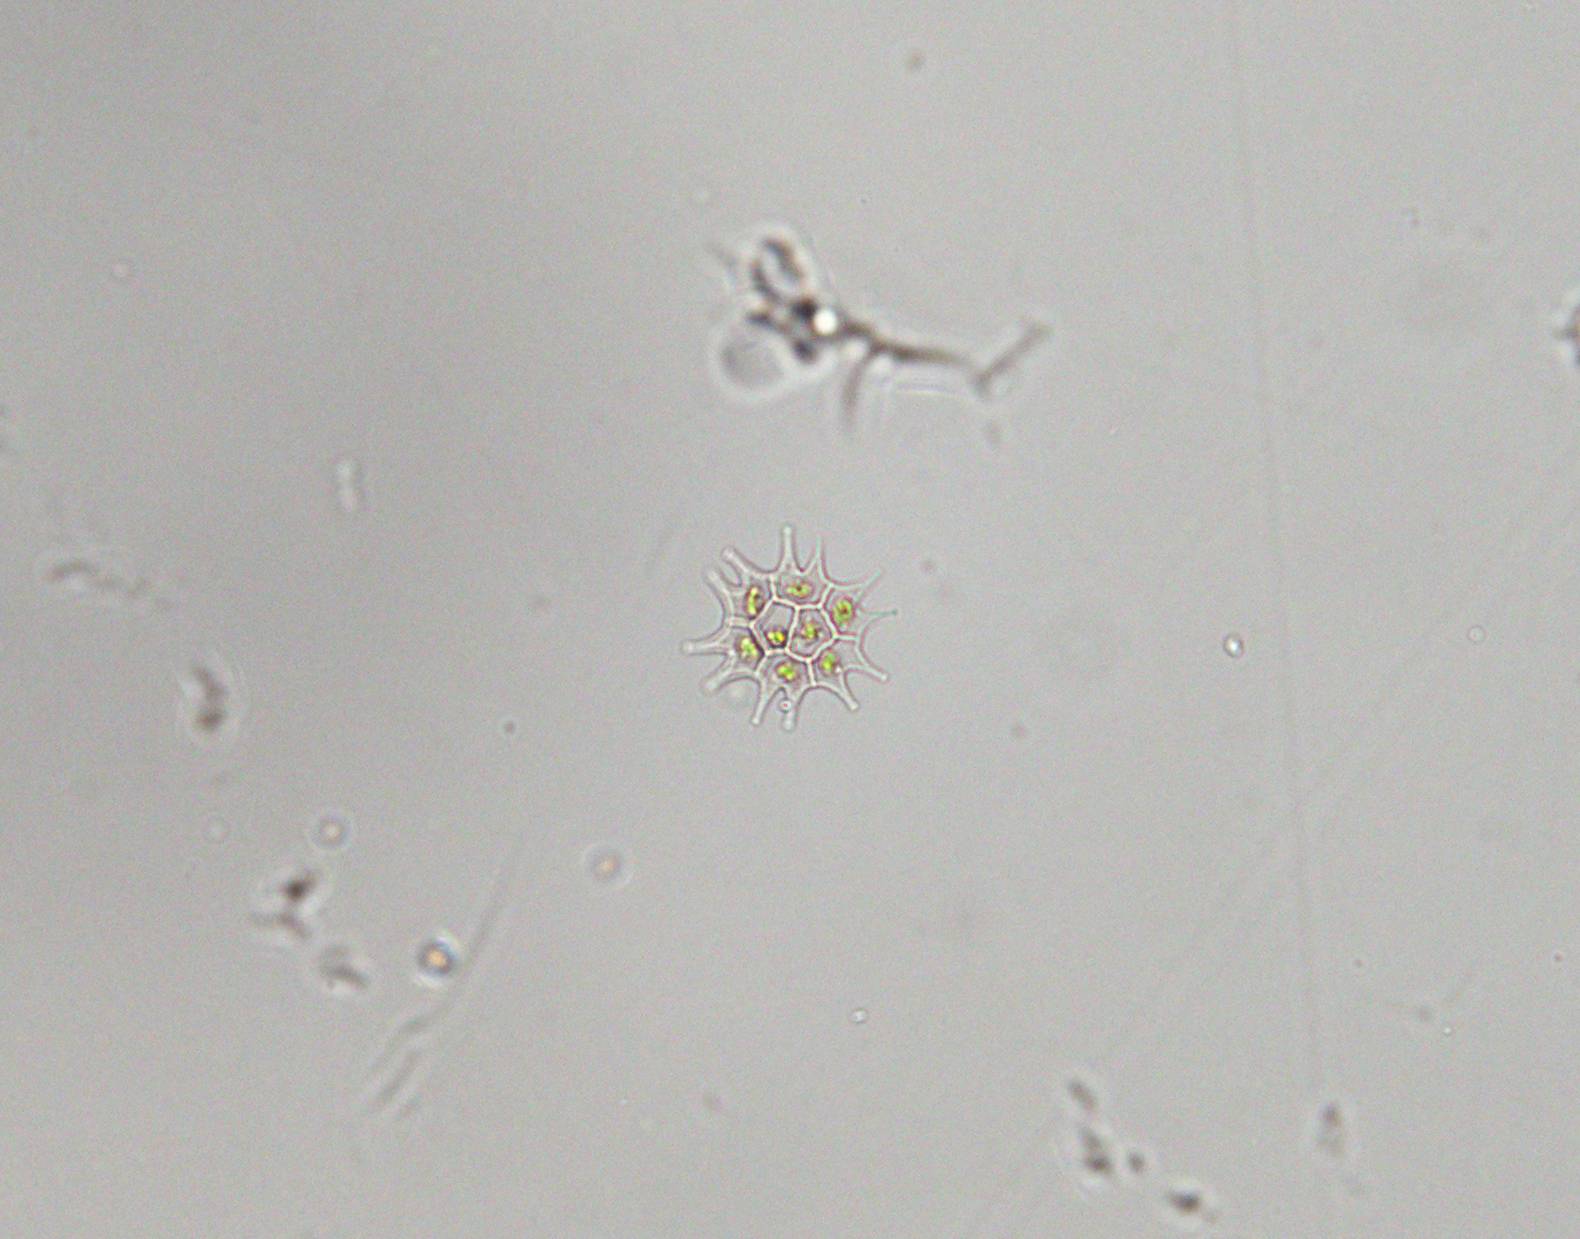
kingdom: Plantae
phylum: Chlorophyta
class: Chlorophyceae
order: Sphaeropleales
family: Hydrodictyaceae
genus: Pseudopediastrum
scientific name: Pseudopediastrum boryanum
